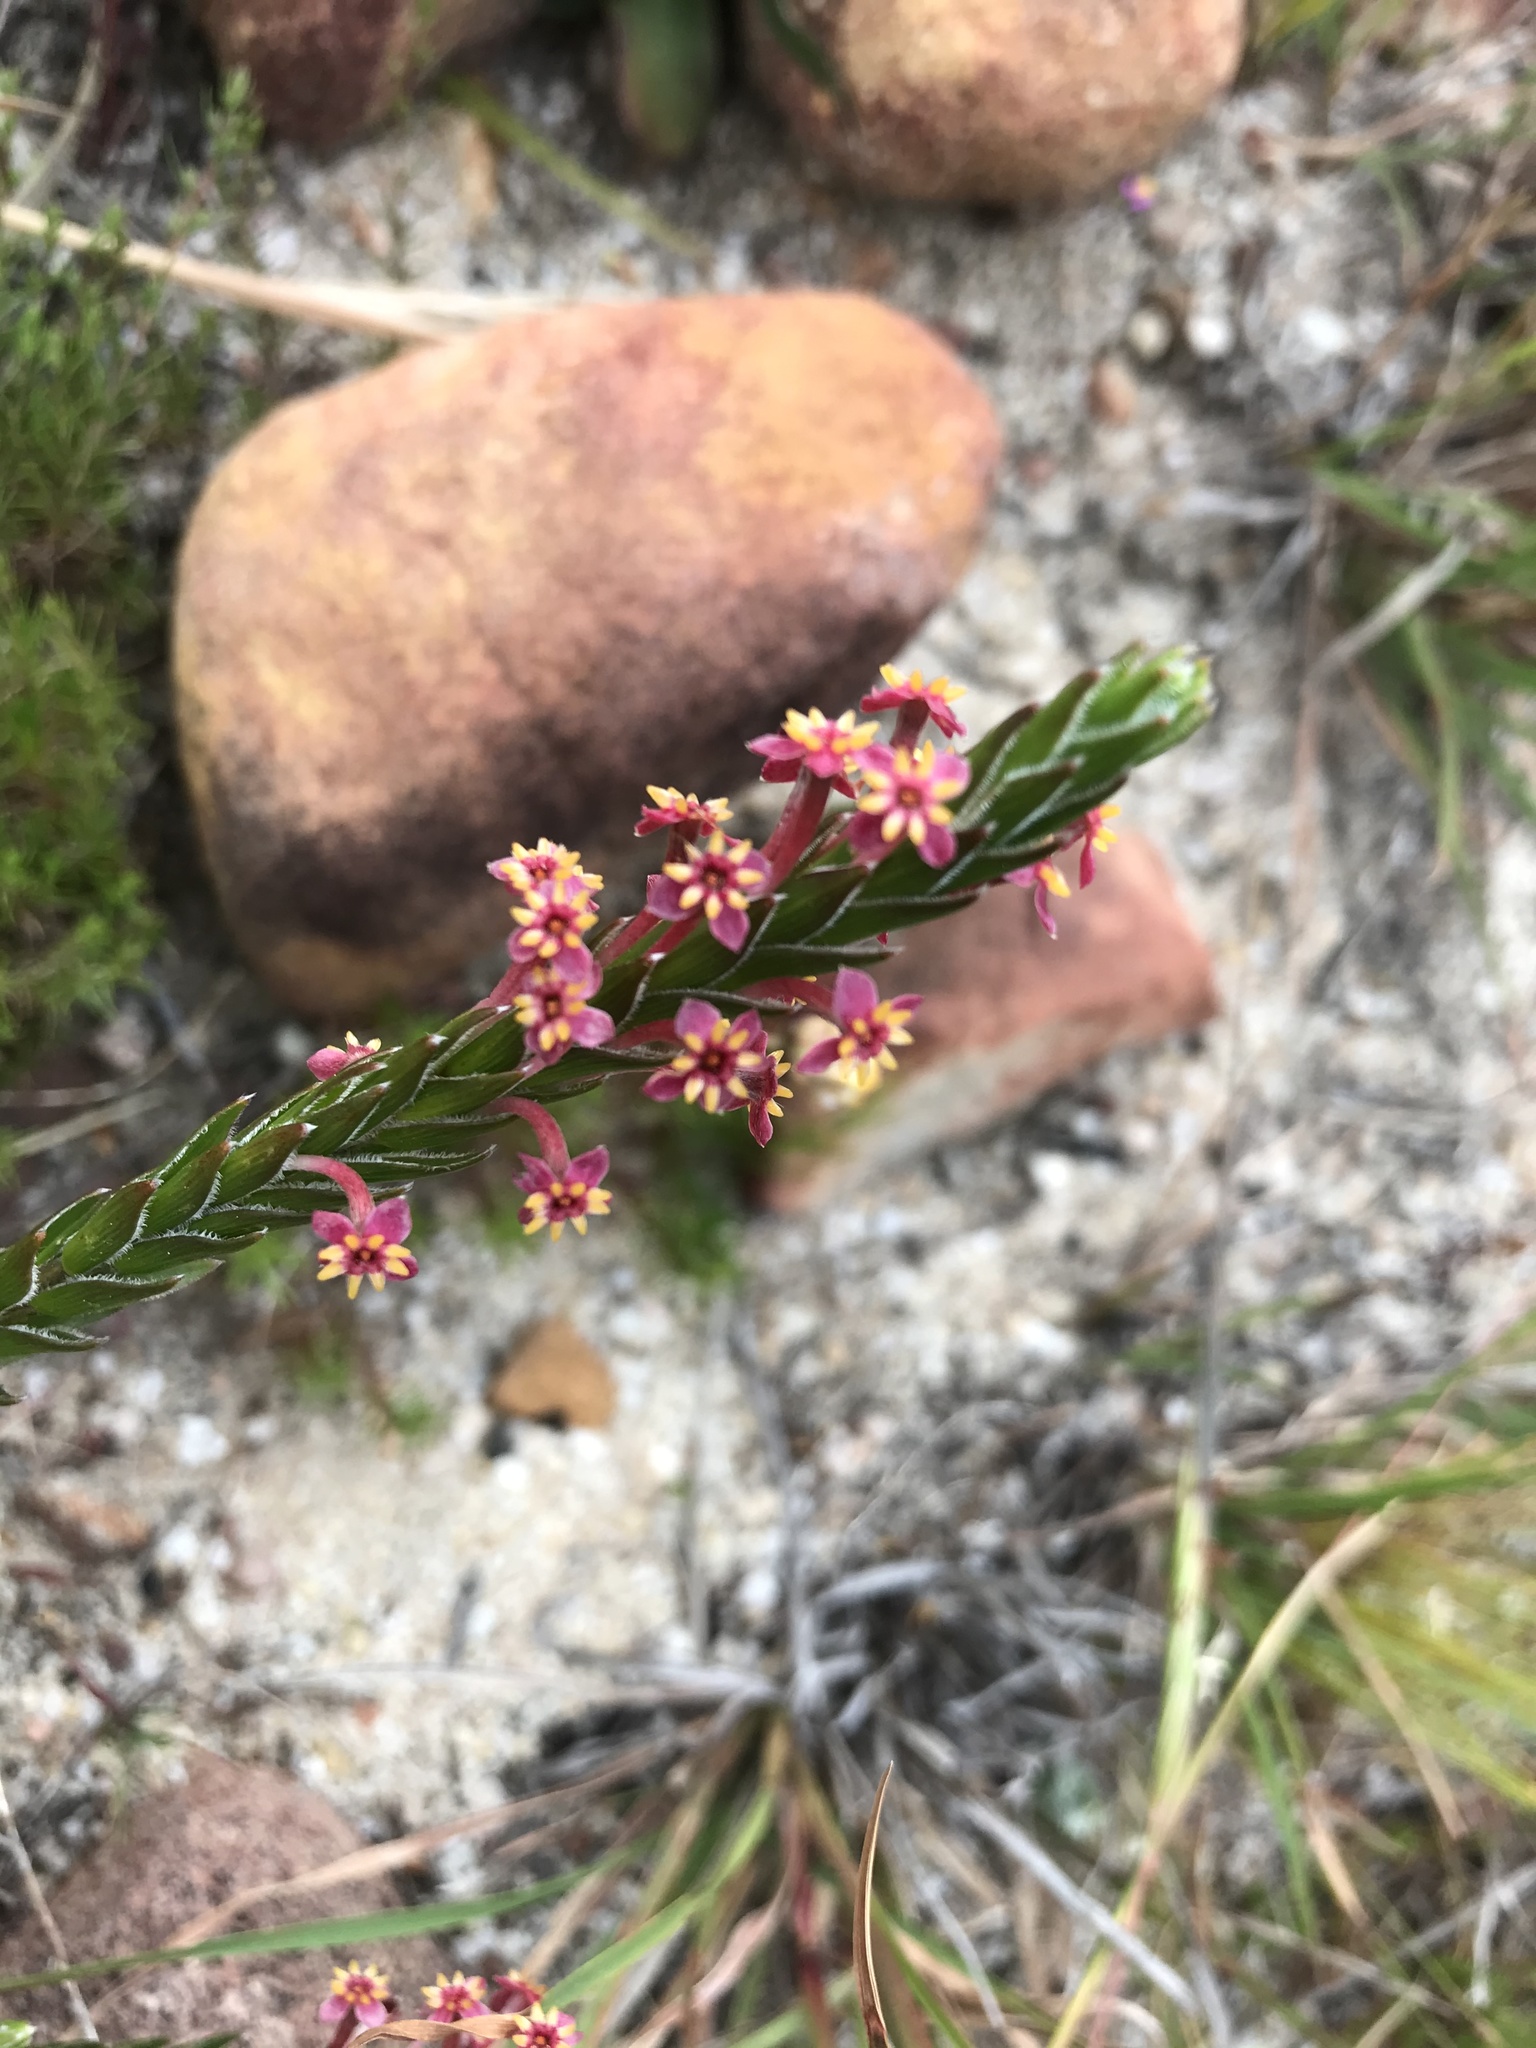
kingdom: Plantae
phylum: Tracheophyta
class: Magnoliopsida
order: Malvales
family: Thymelaeaceae
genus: Struthiola
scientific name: Struthiola ciliata
